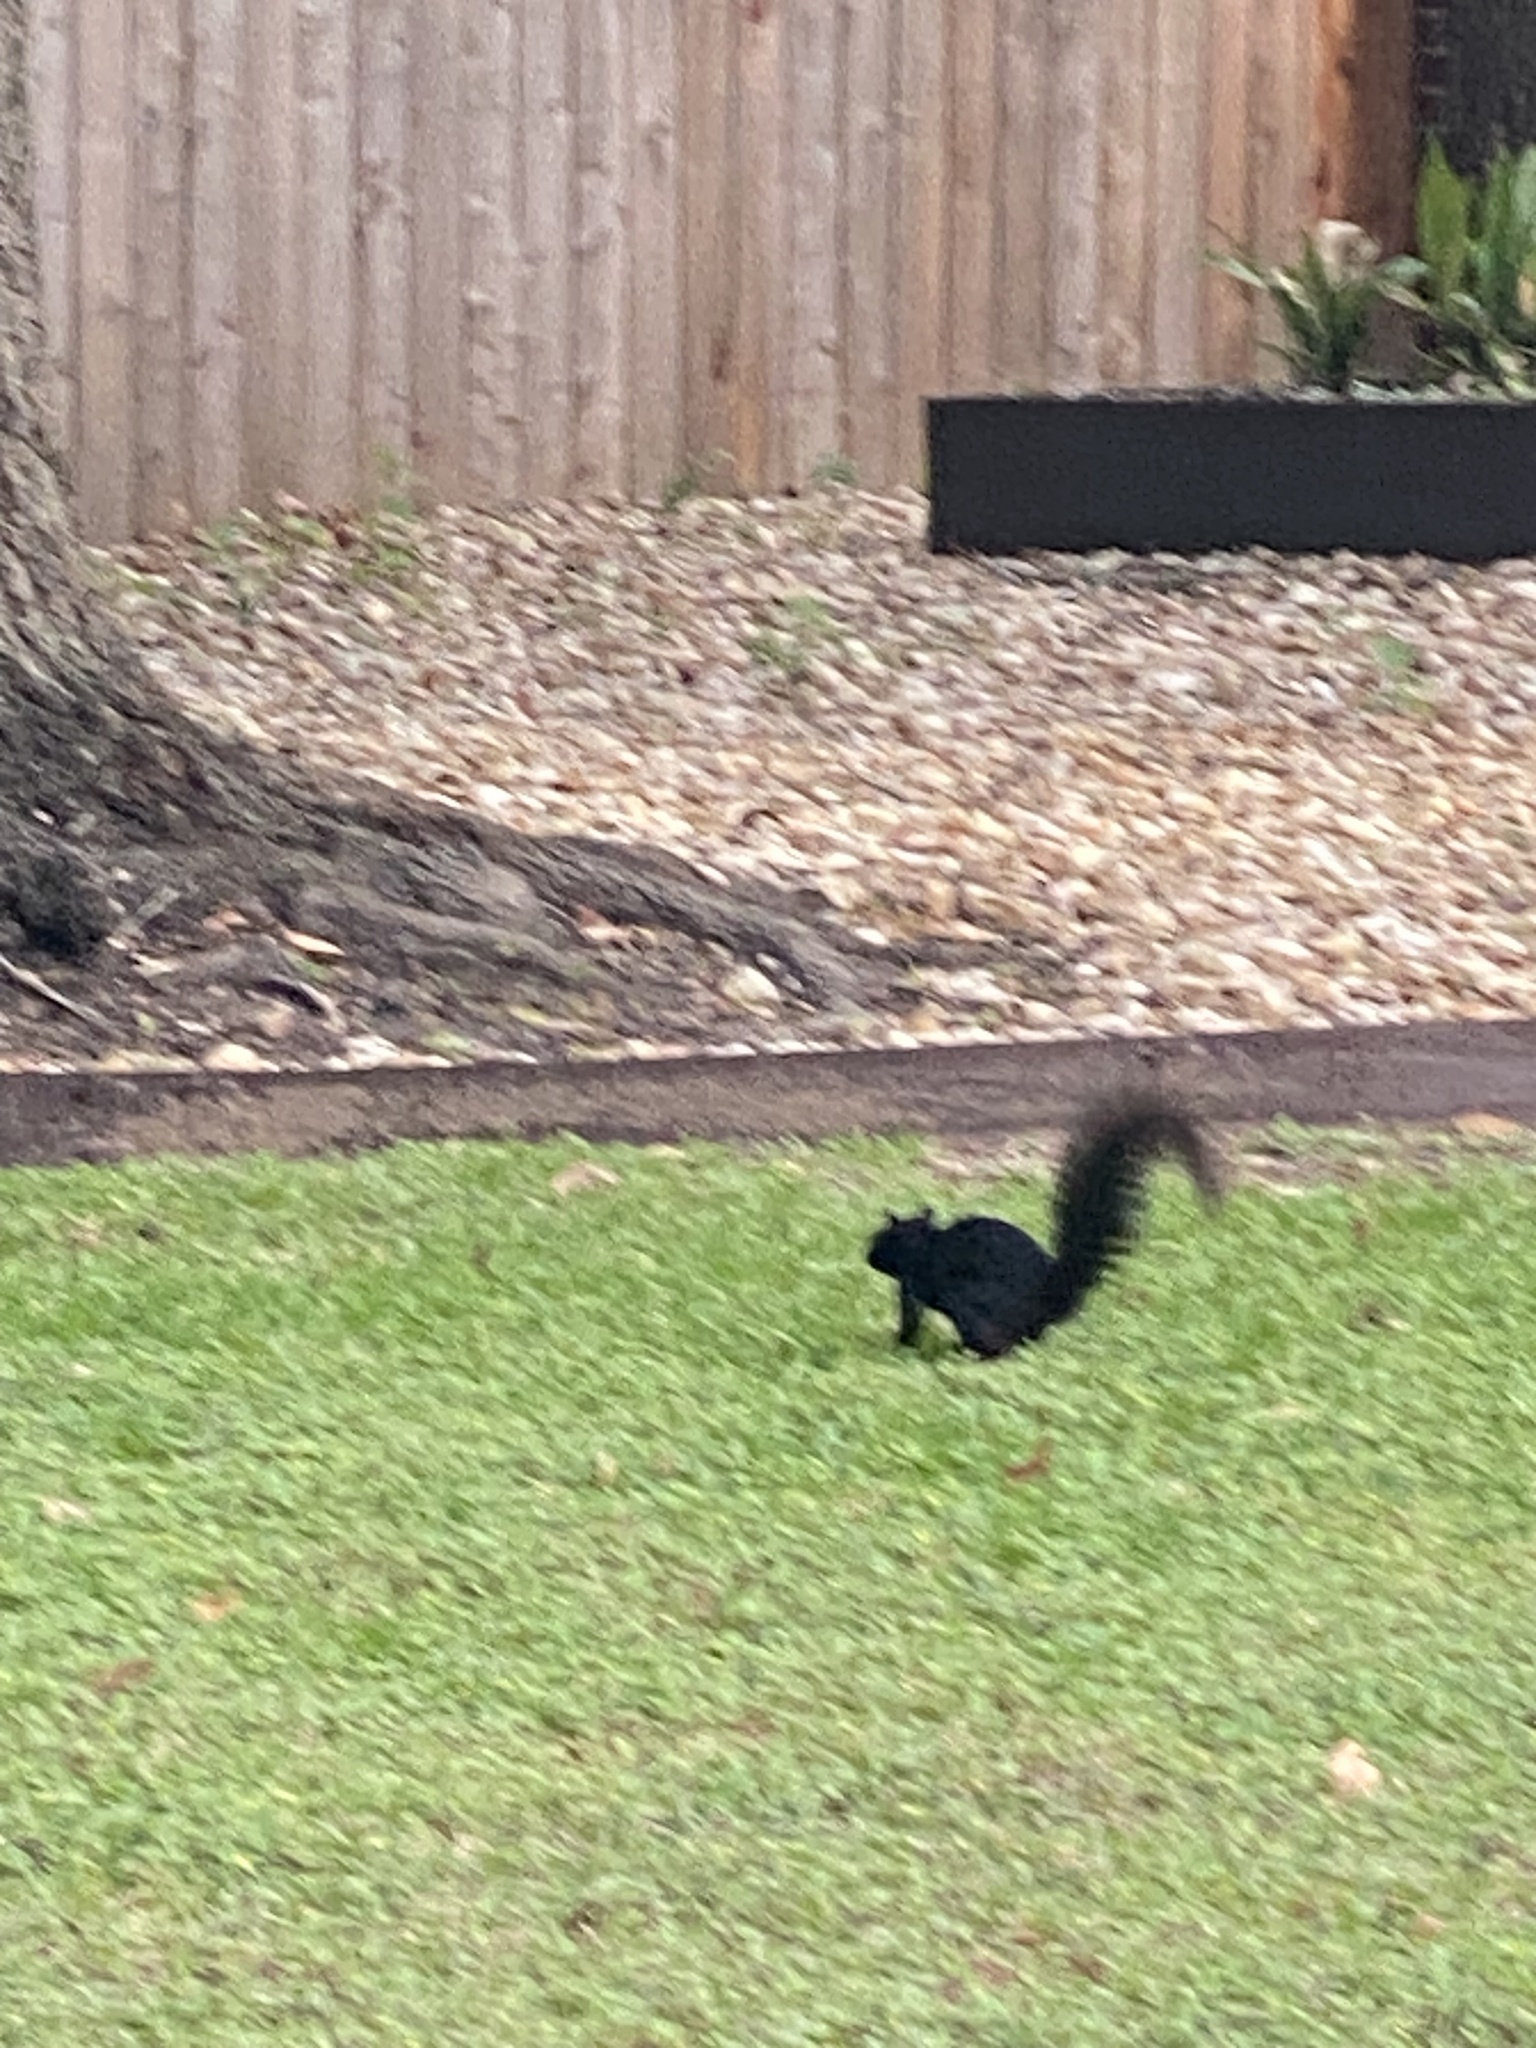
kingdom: Animalia
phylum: Chordata
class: Mammalia
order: Rodentia
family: Sciuridae
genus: Sciurus
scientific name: Sciurus niger
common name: Fox squirrel
